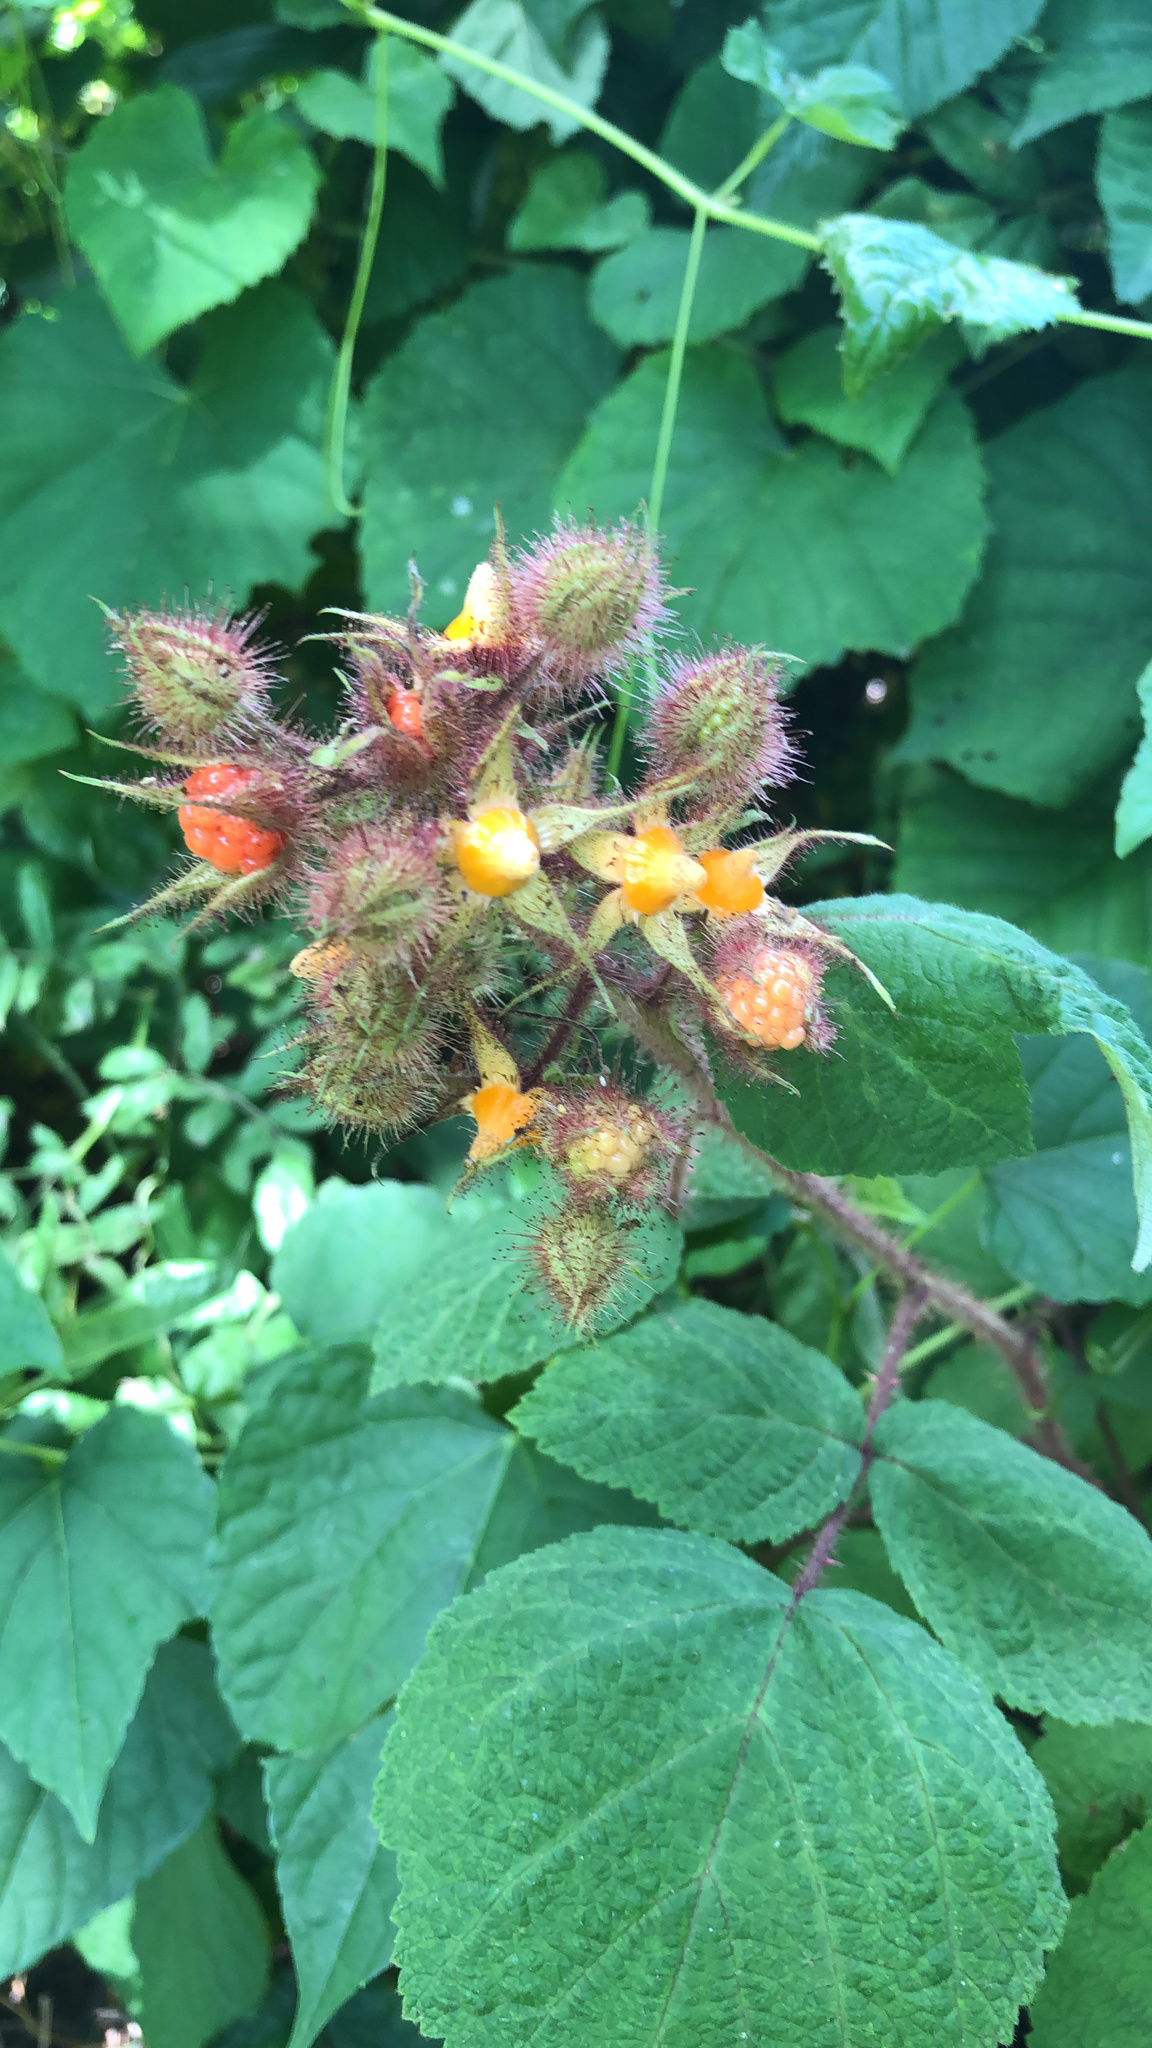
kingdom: Plantae
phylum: Tracheophyta
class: Magnoliopsida
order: Rosales
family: Rosaceae
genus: Rubus
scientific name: Rubus phoenicolasius
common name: Japanese wineberry
